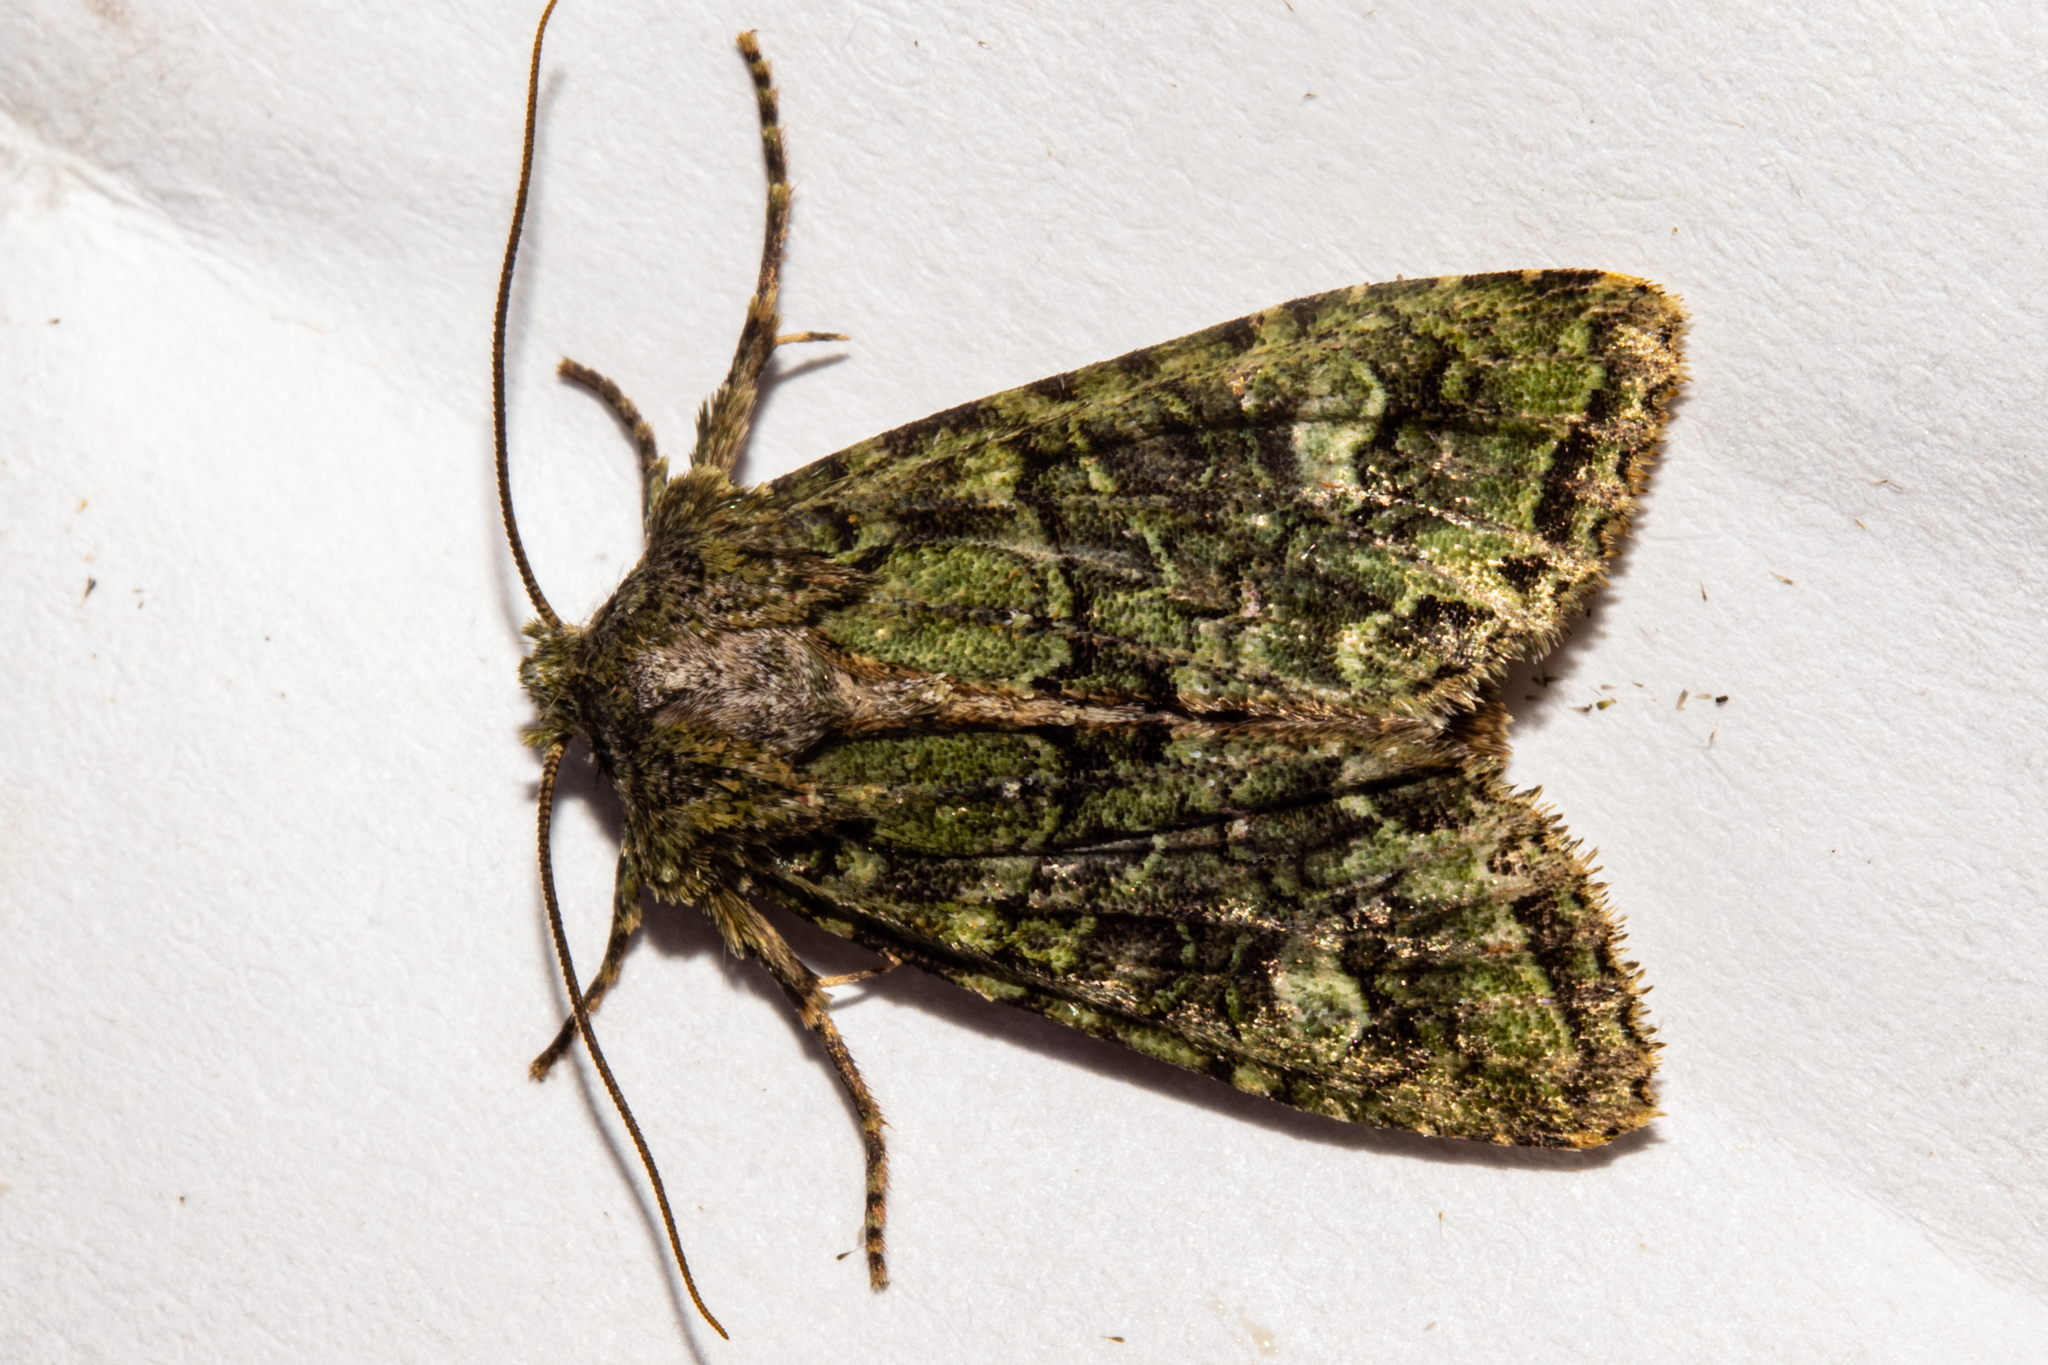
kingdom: Animalia
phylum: Arthropoda
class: Insecta
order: Lepidoptera
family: Noctuidae
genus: Ichneutica
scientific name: Ichneutica
